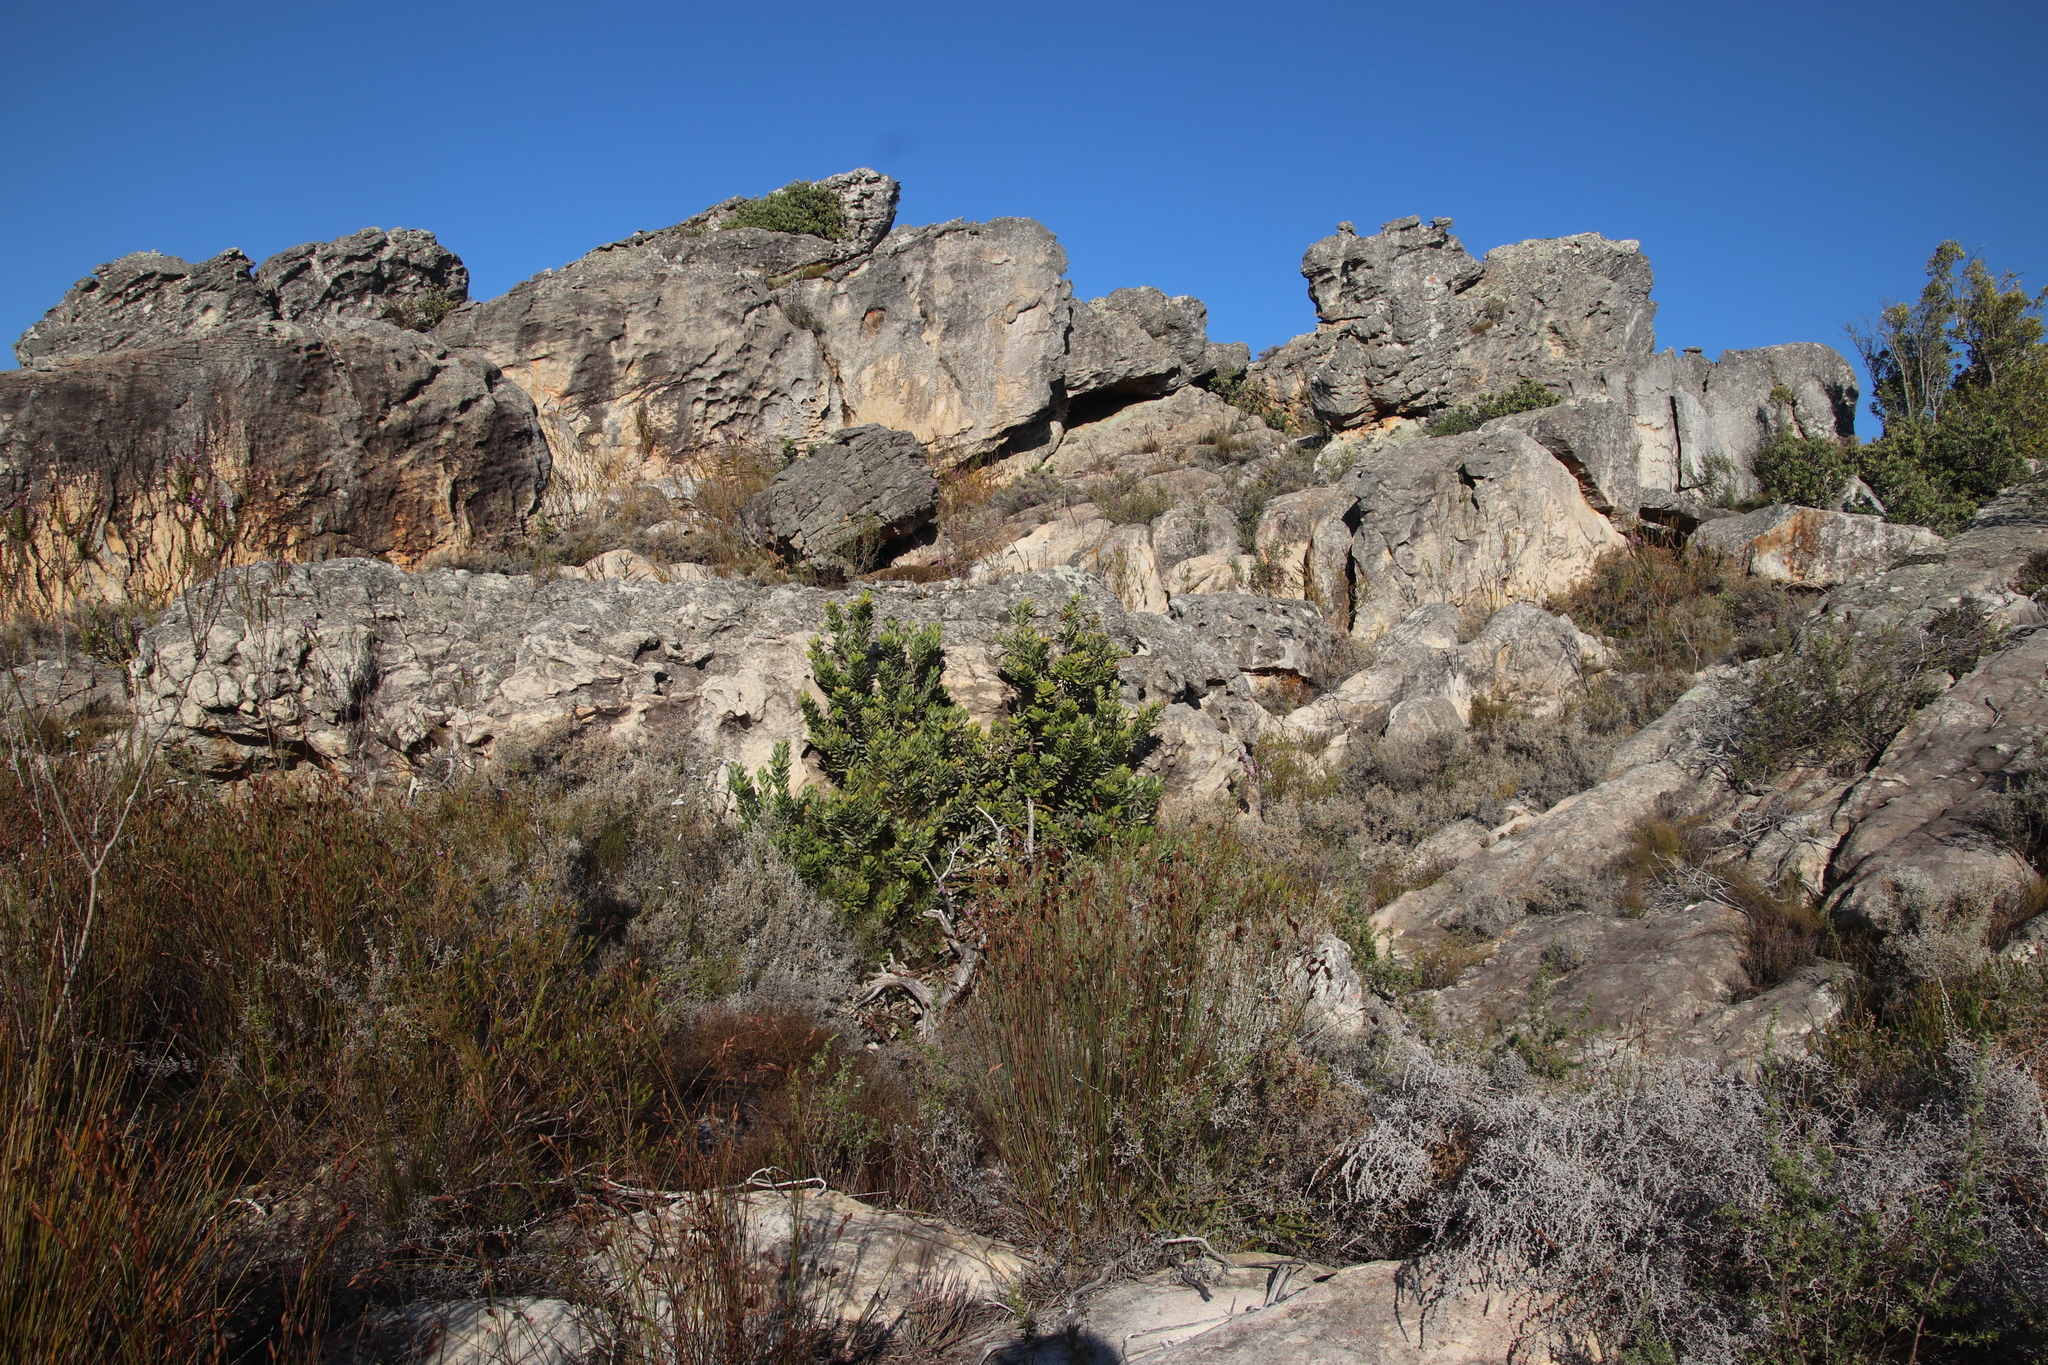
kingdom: Plantae
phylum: Tracheophyta
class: Magnoliopsida
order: Sapindales
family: Anacardiaceae
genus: Heeria
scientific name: Heeria argentea
